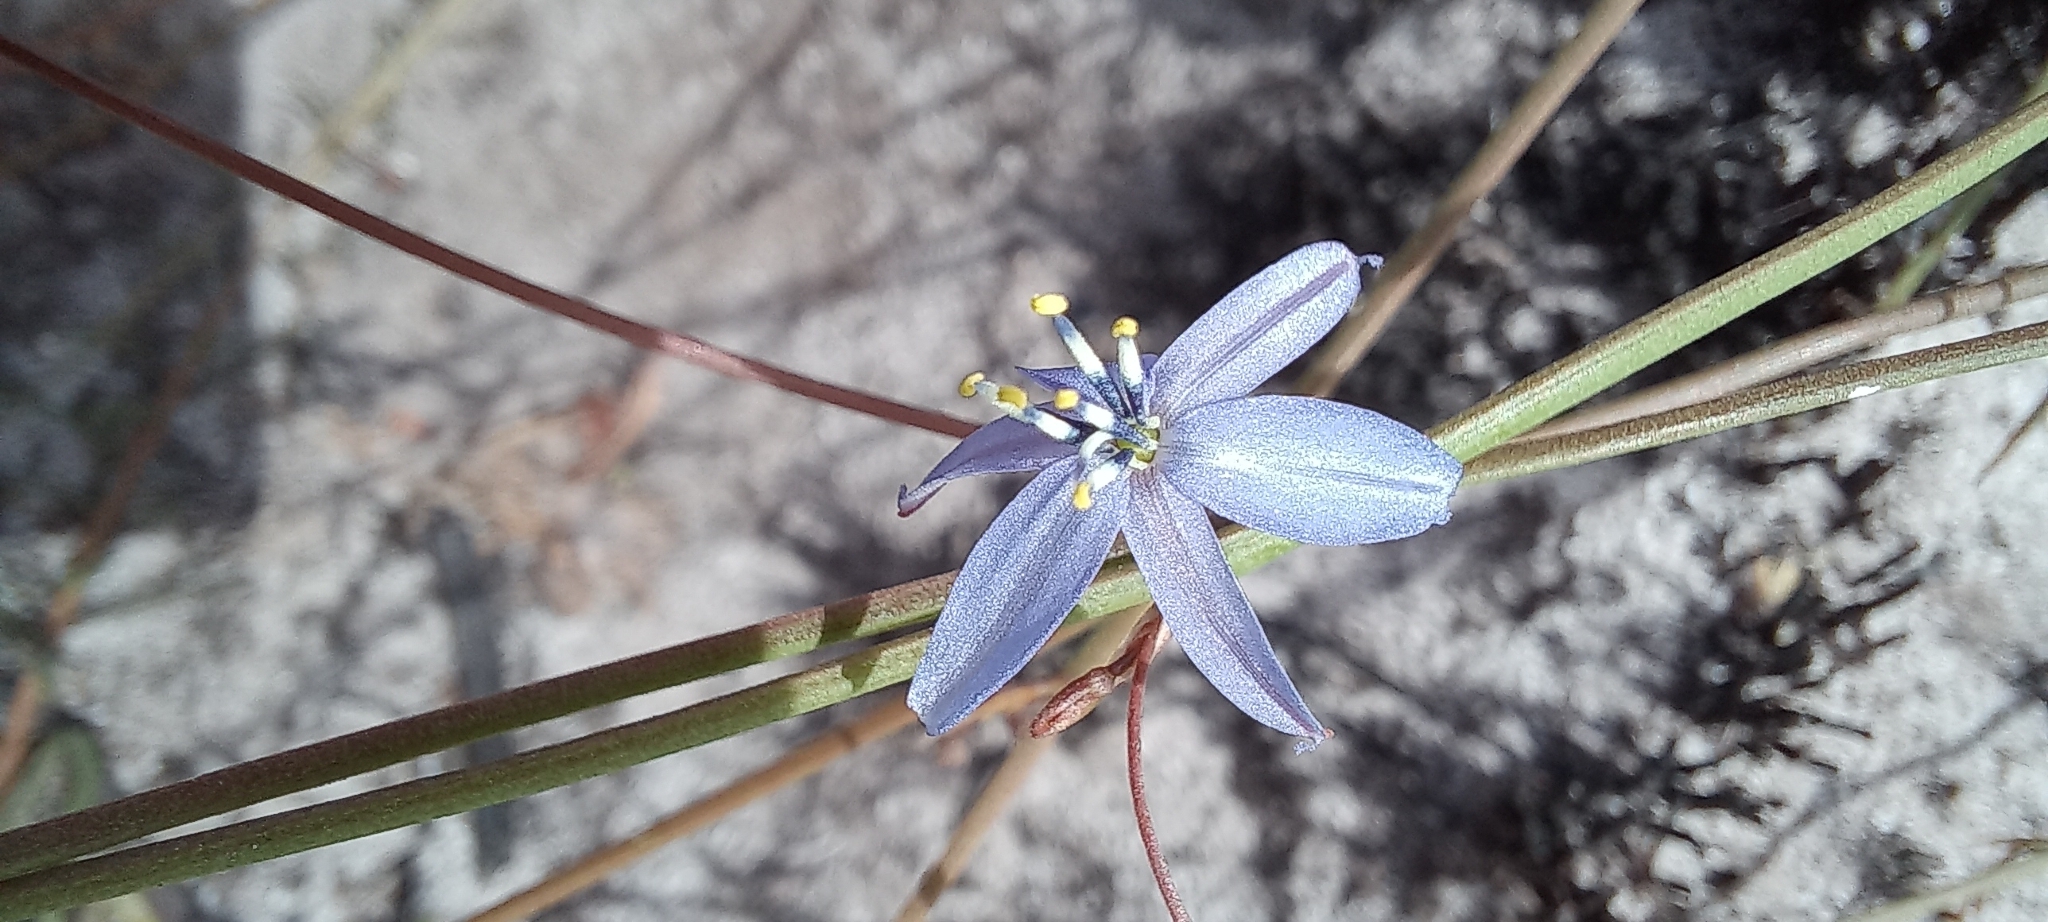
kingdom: Plantae
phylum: Tracheophyta
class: Liliopsida
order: Asparagales
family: Asphodelaceae
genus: Caesia
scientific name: Caesia contorta
